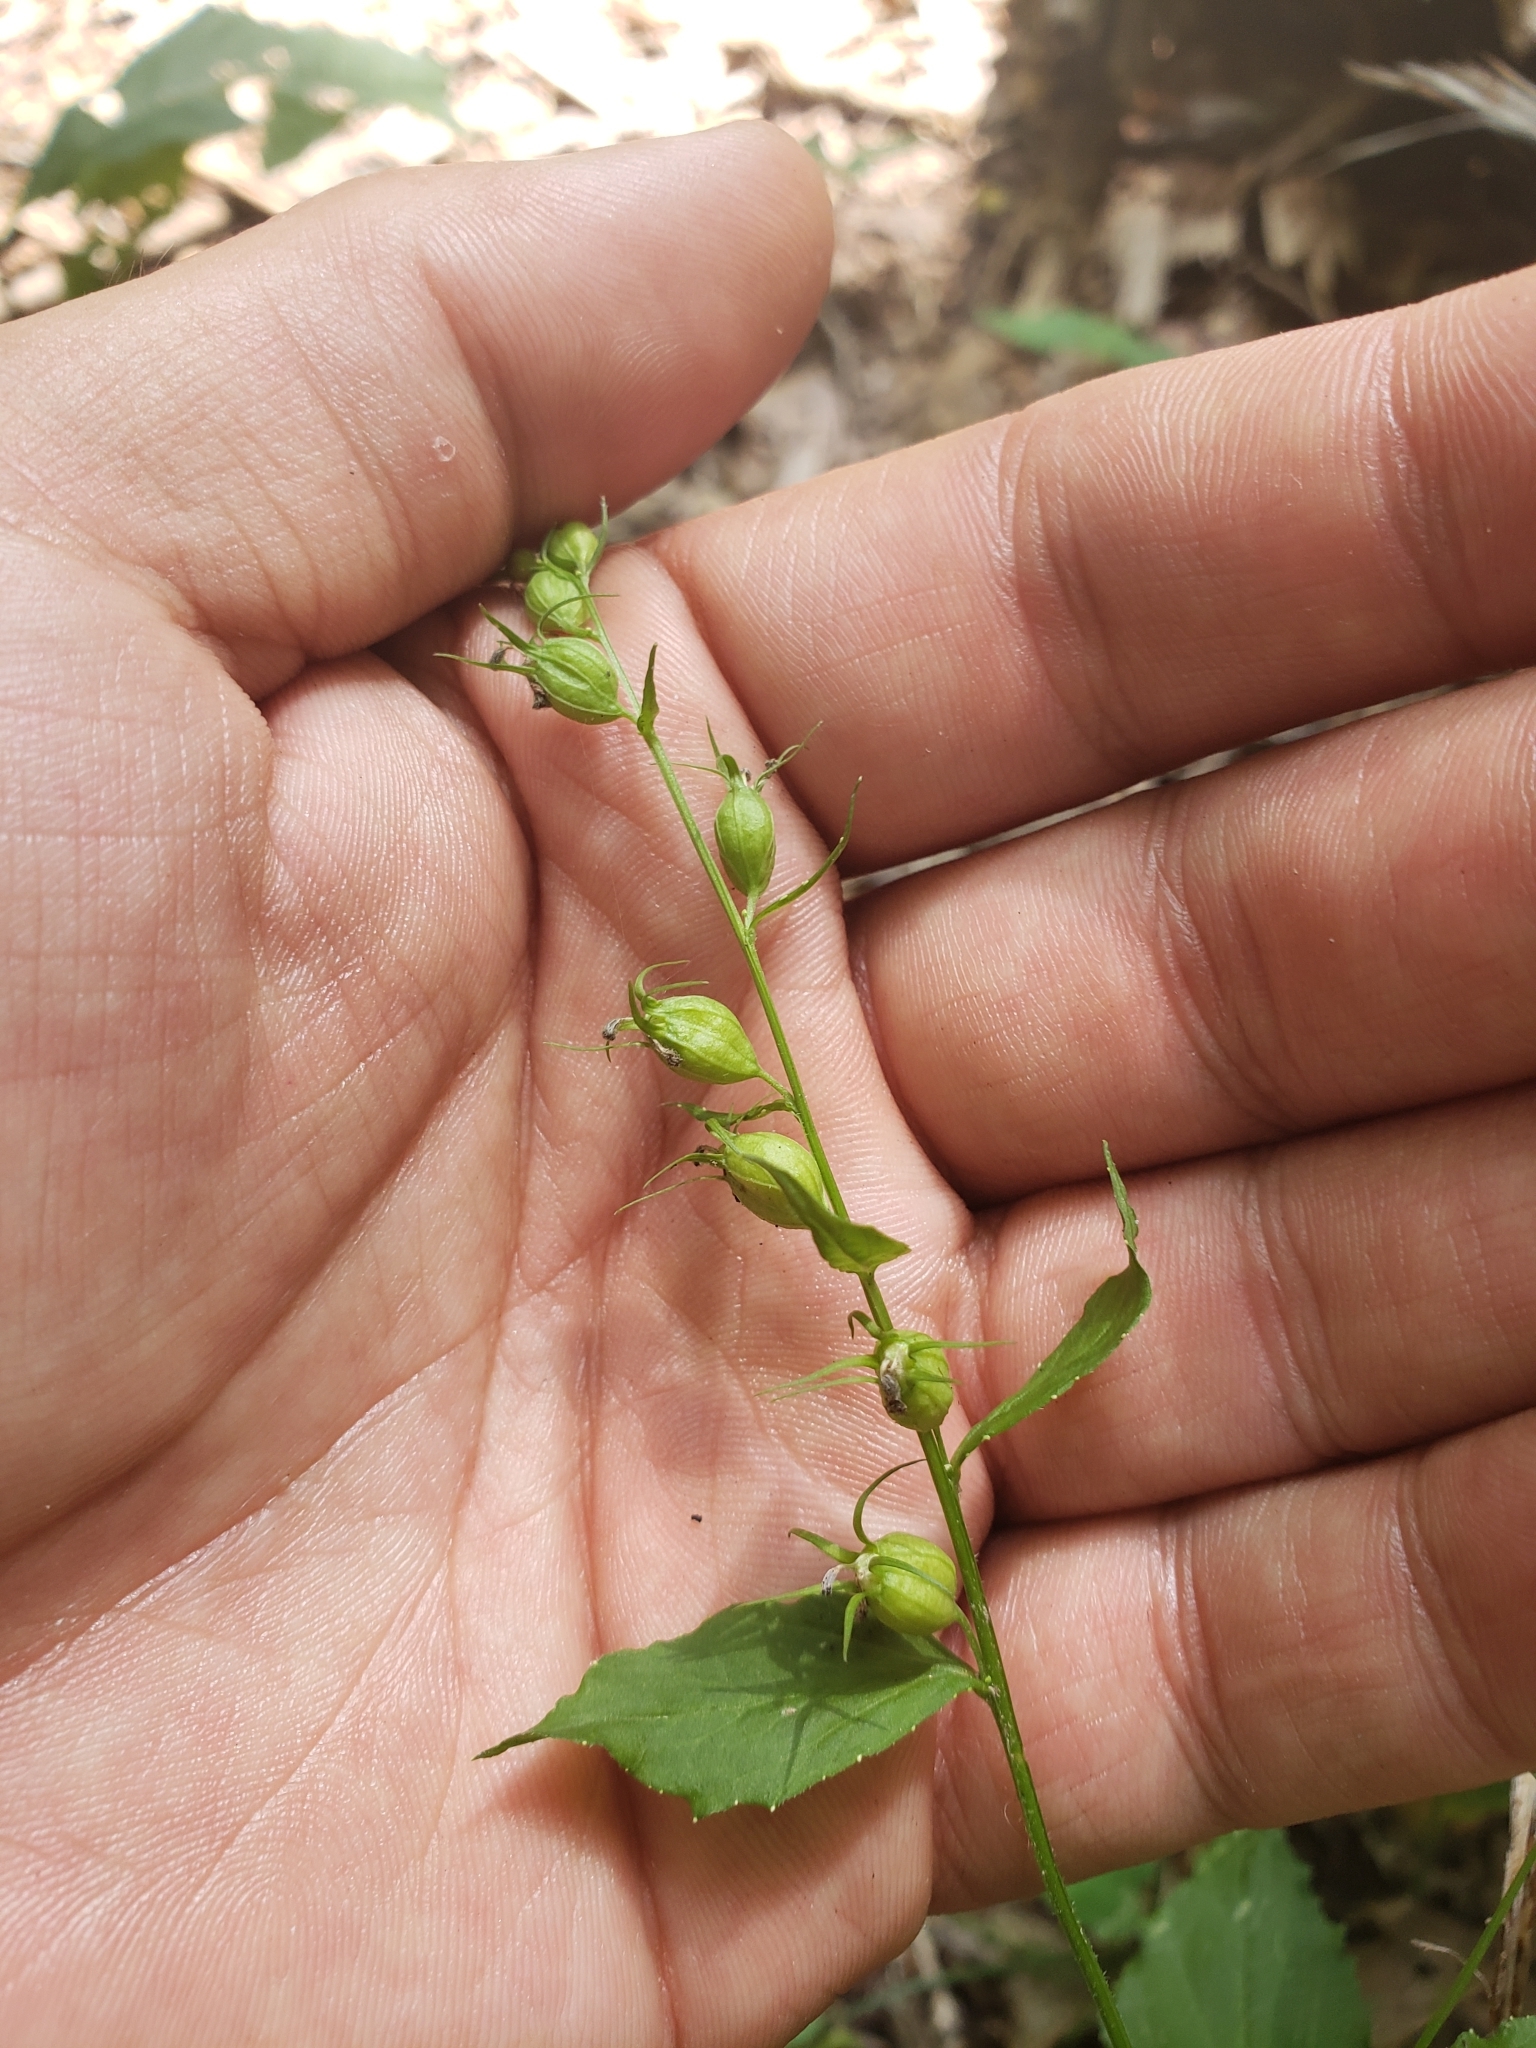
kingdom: Plantae
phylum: Tracheophyta
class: Magnoliopsida
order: Asterales
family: Campanulaceae
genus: Lobelia
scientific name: Lobelia inflata
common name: Indian tobacco
